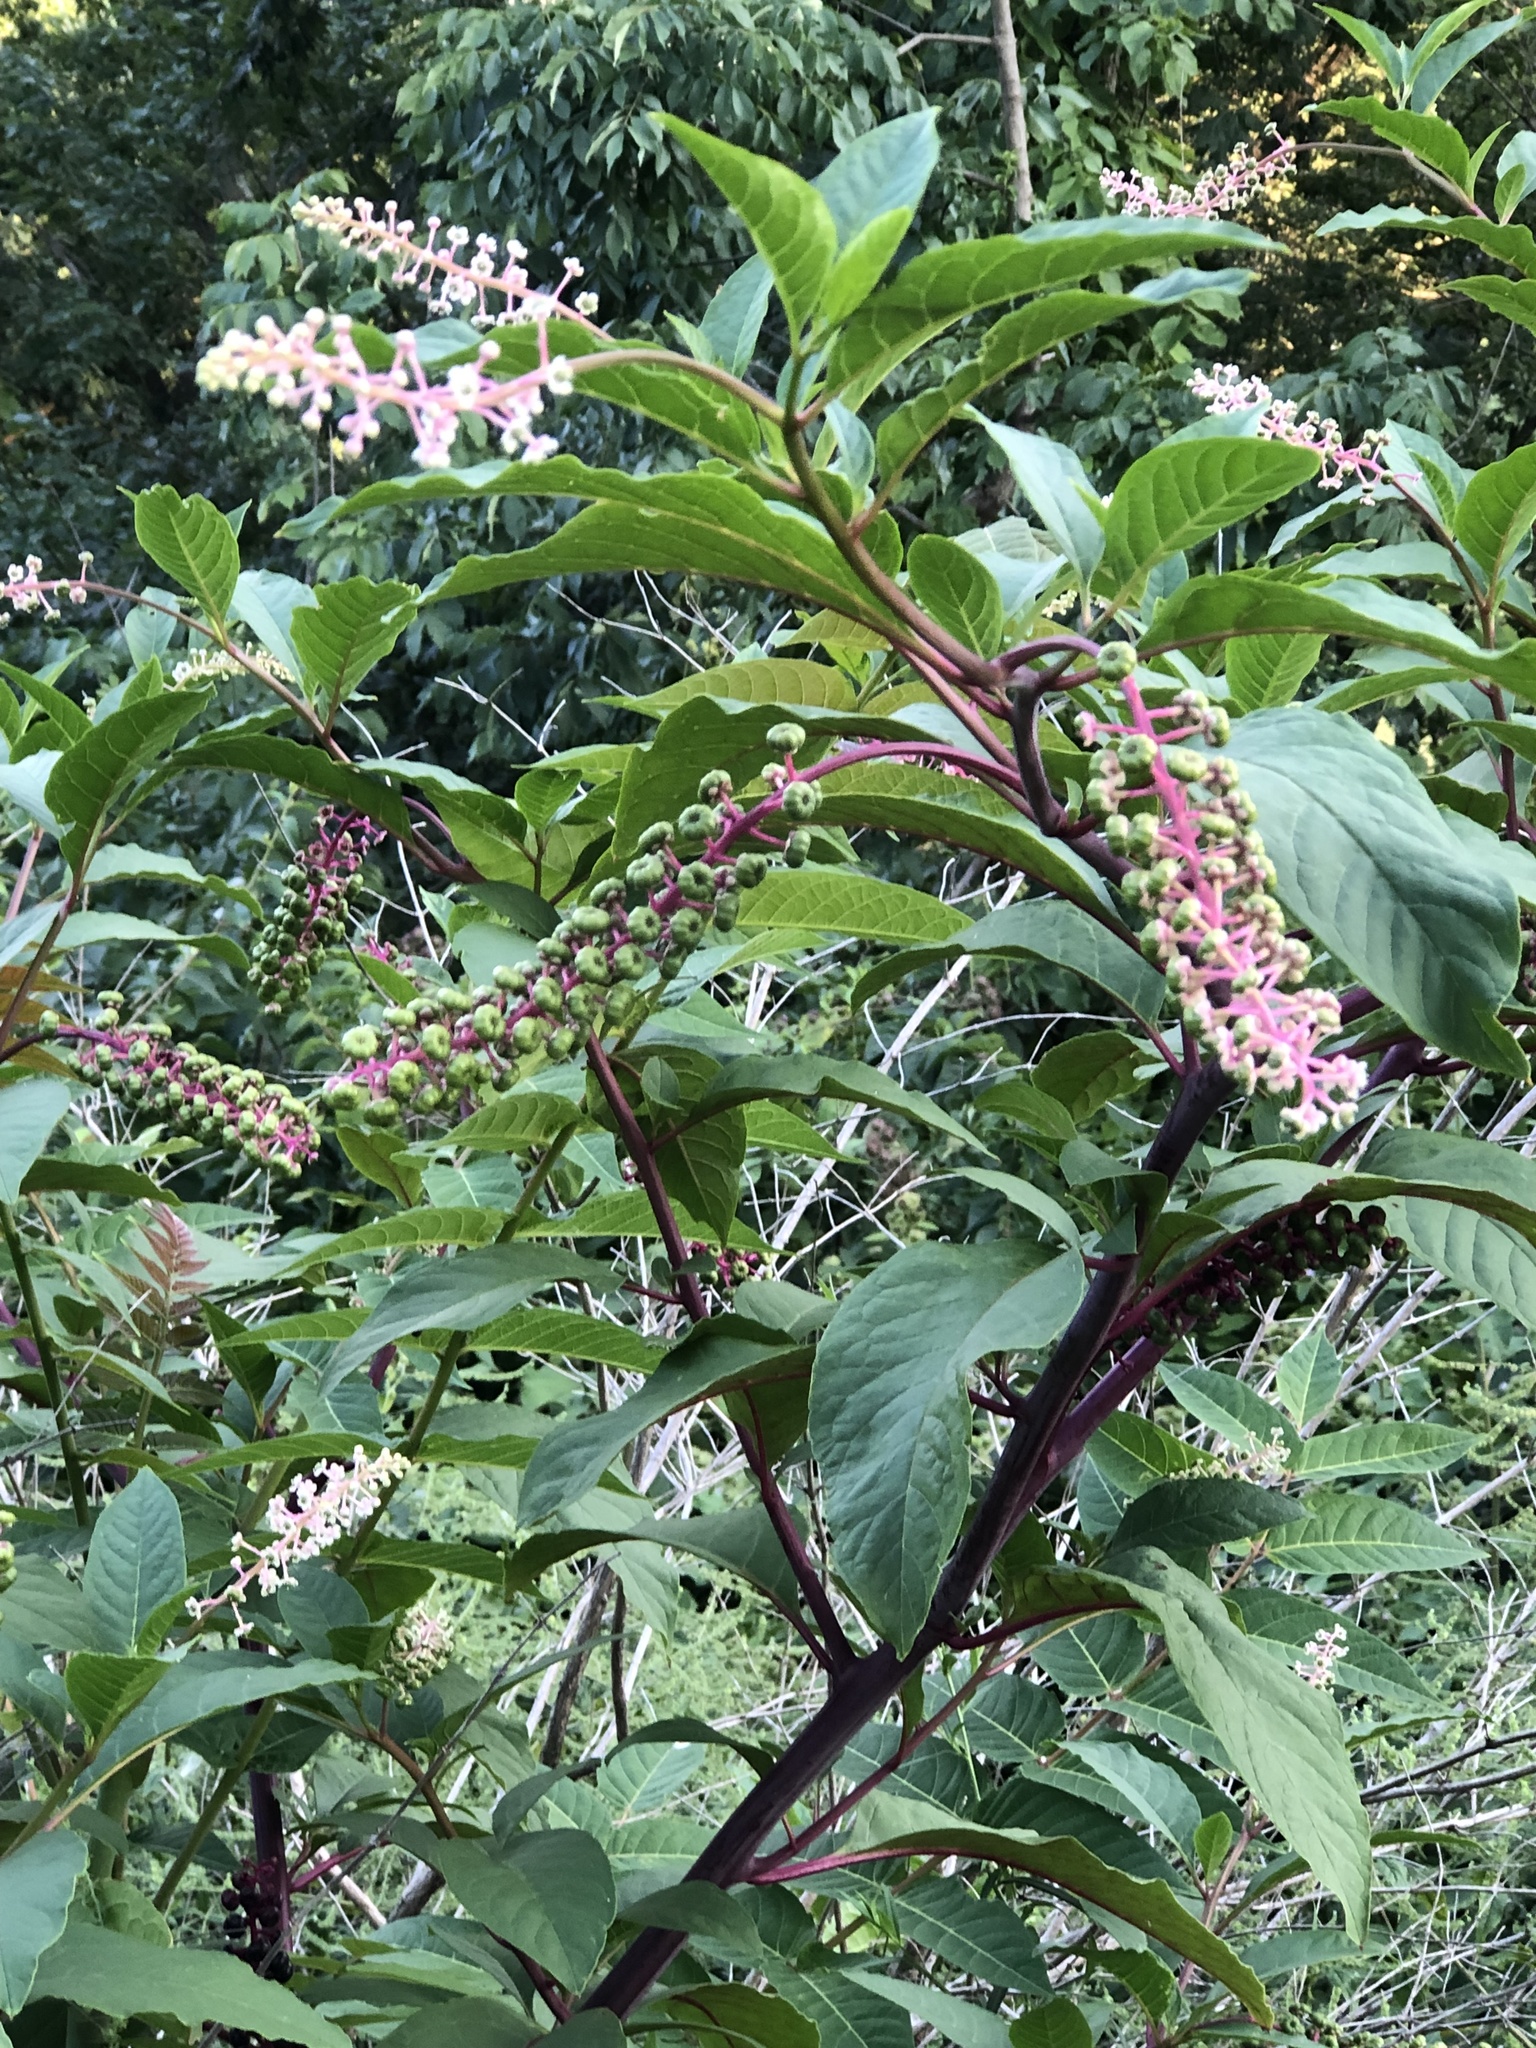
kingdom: Plantae
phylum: Tracheophyta
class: Magnoliopsida
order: Caryophyllales
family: Phytolaccaceae
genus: Phytolacca
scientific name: Phytolacca americana
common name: American pokeweed
